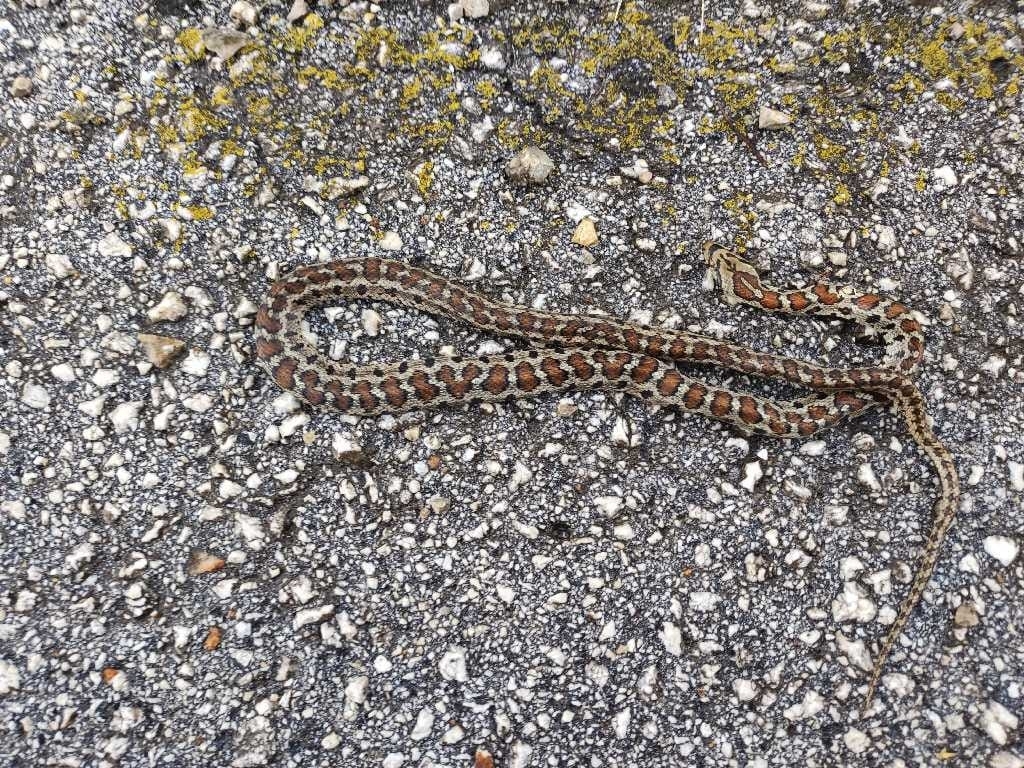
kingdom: Animalia
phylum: Chordata
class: Squamata
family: Colubridae
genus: Zamenis
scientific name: Zamenis situla
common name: European ratsnake
